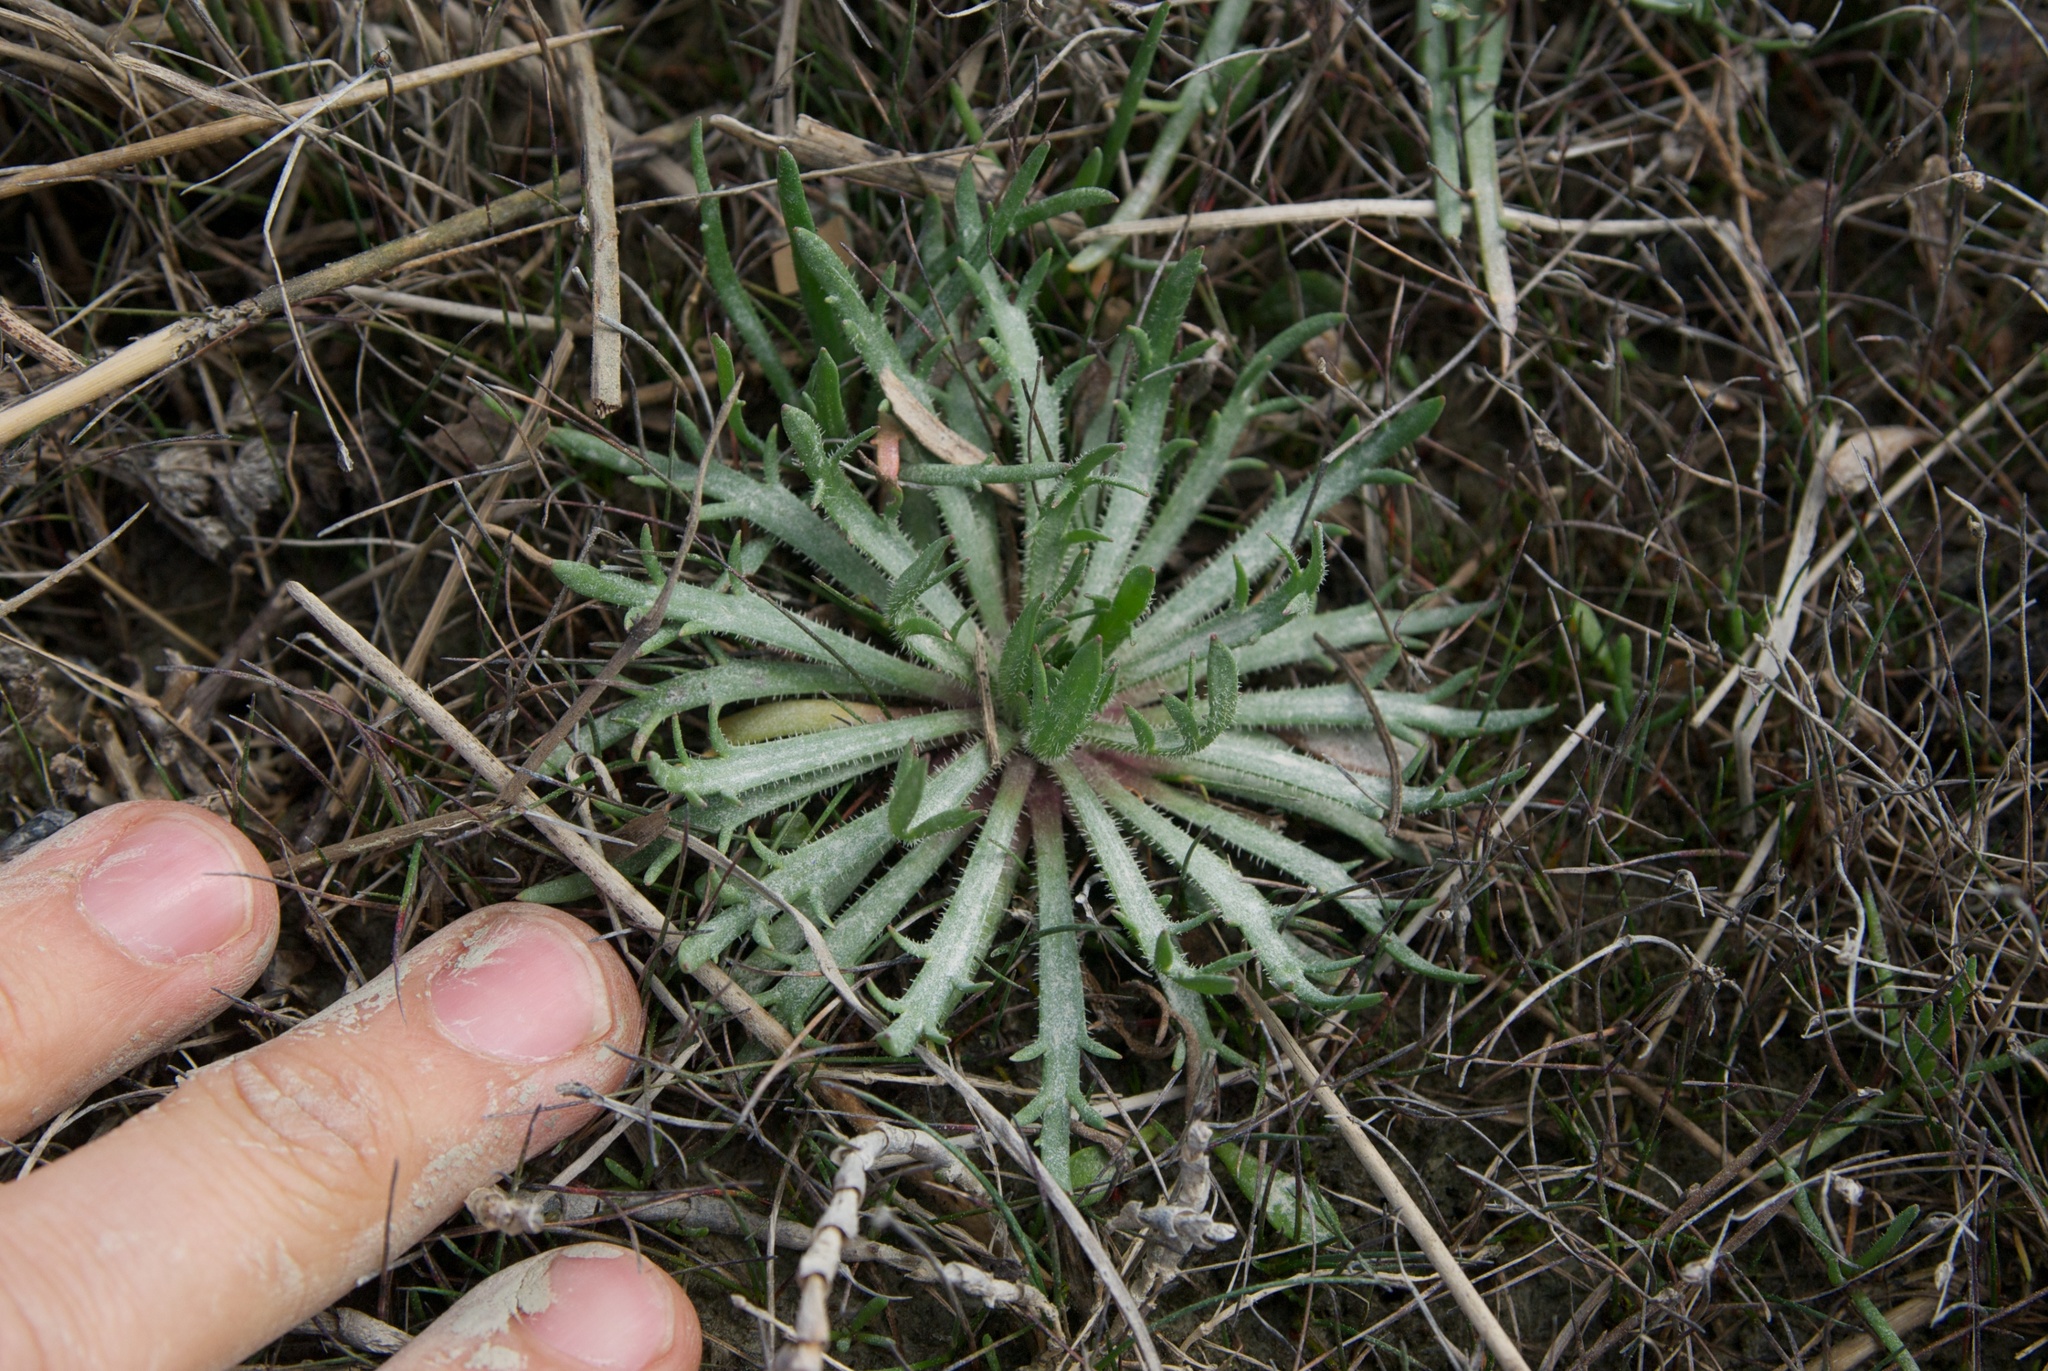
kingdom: Plantae
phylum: Tracheophyta
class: Magnoliopsida
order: Lamiales
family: Plantaginaceae
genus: Plantago
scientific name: Plantago coronopus
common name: Buck's-horn plantain
